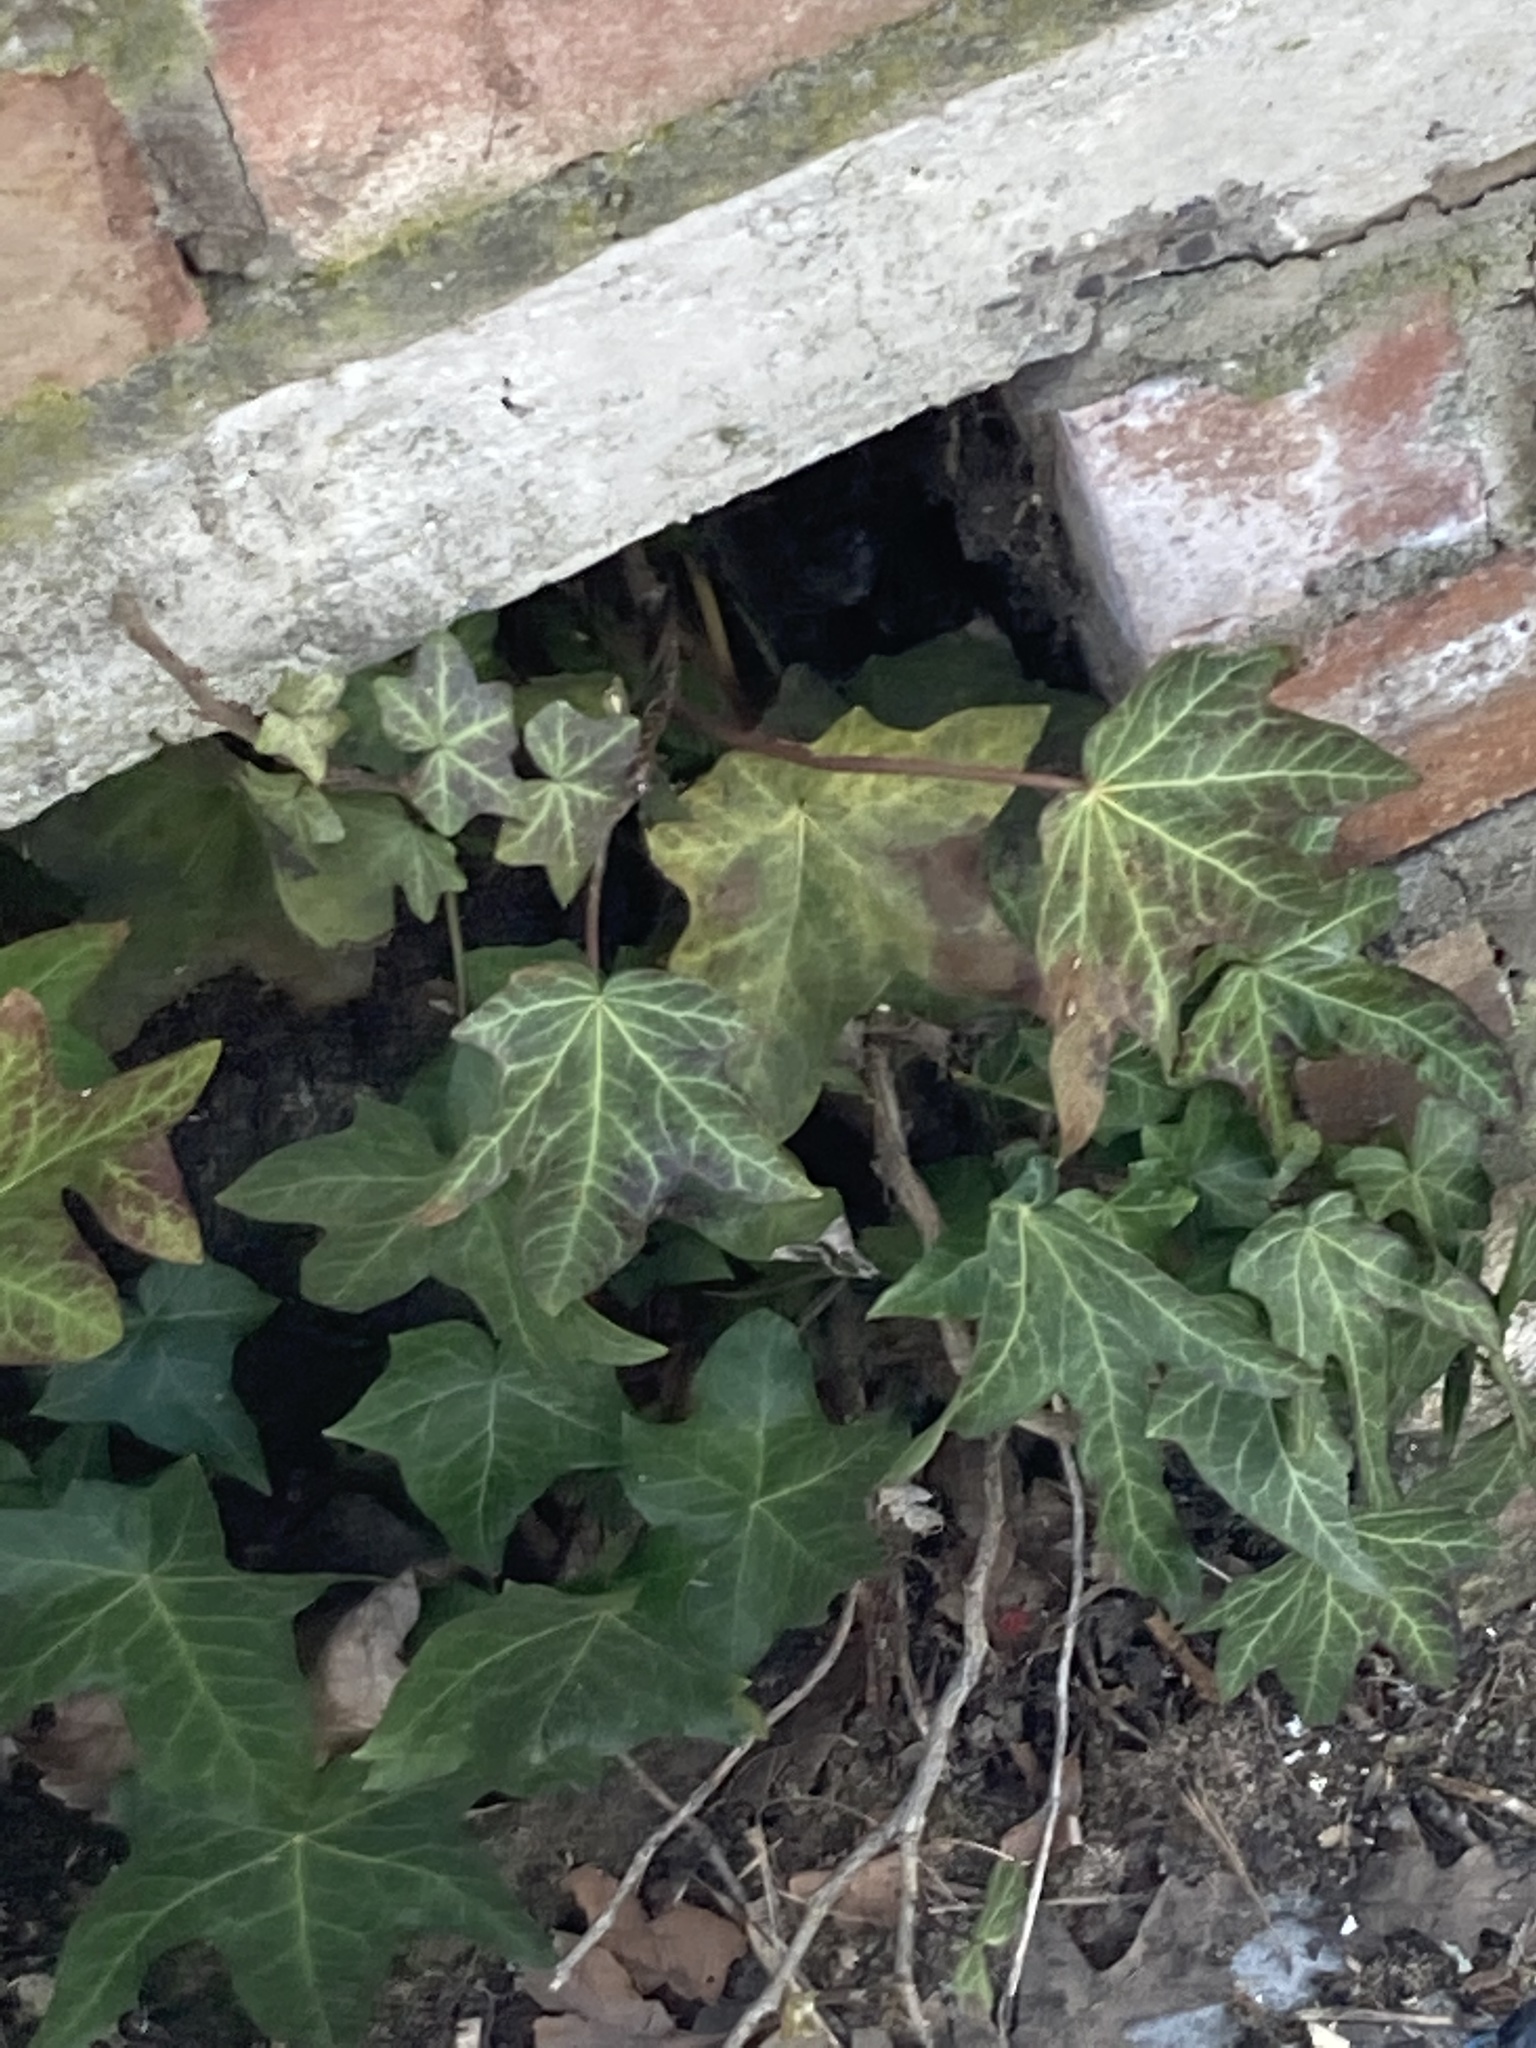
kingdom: Plantae
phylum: Tracheophyta
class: Magnoliopsida
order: Apiales
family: Araliaceae
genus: Hedera
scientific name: Hedera helix
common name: Ivy
